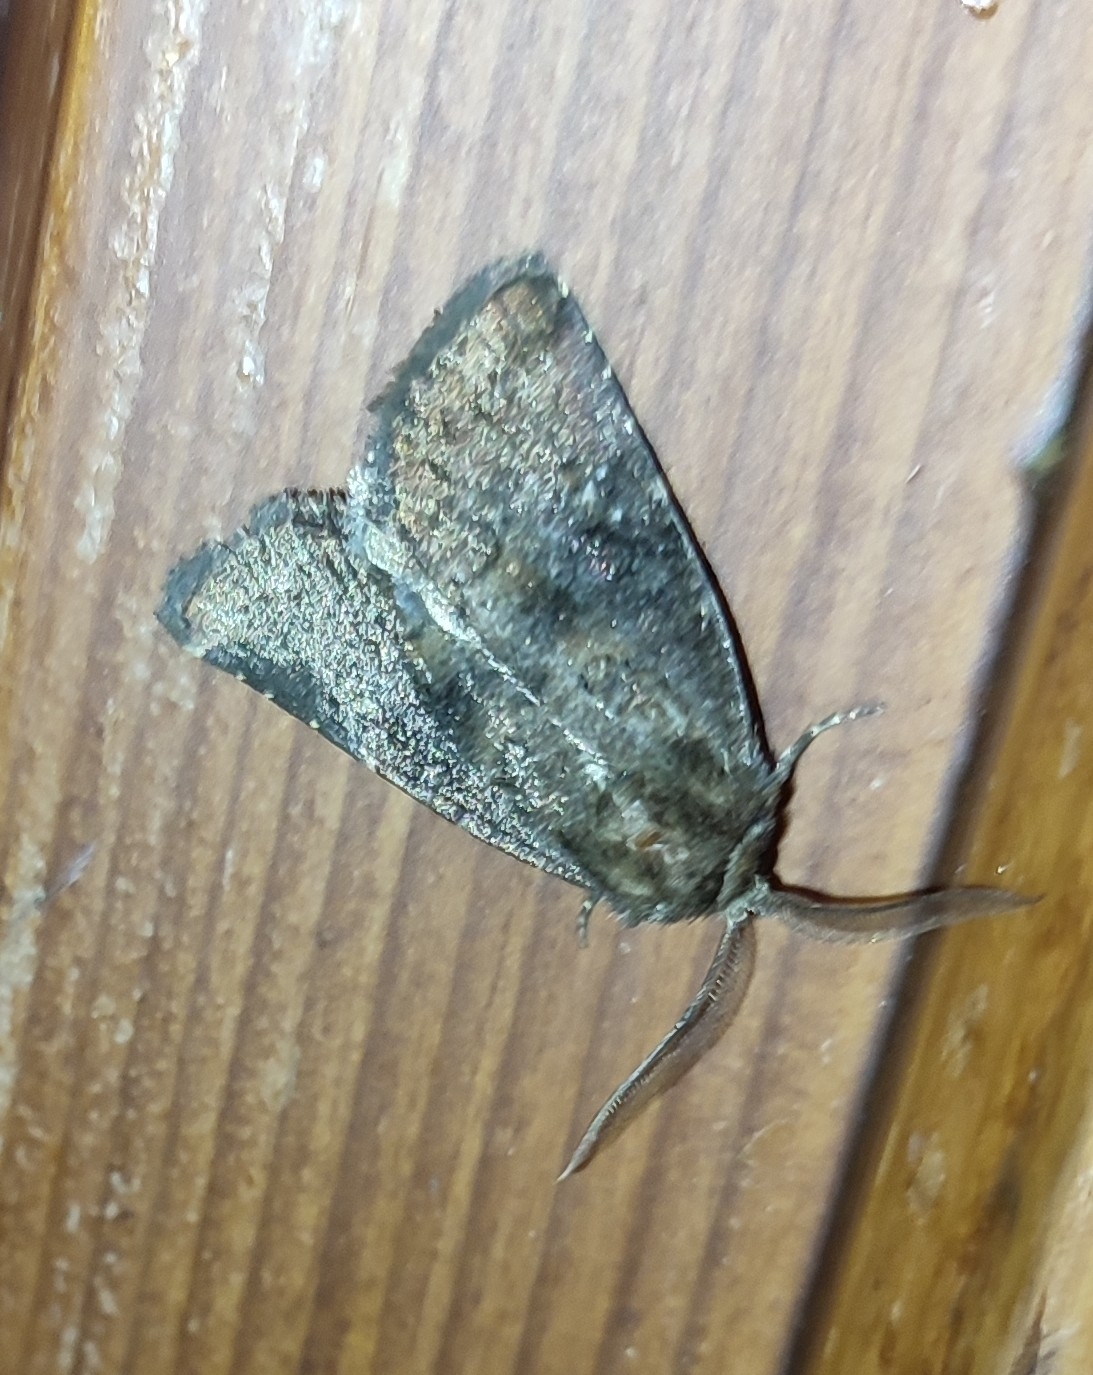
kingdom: Animalia
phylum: Arthropoda
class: Insecta
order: Lepidoptera
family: Noctuidae
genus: Charanyca
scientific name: Charanyca ferruginea
